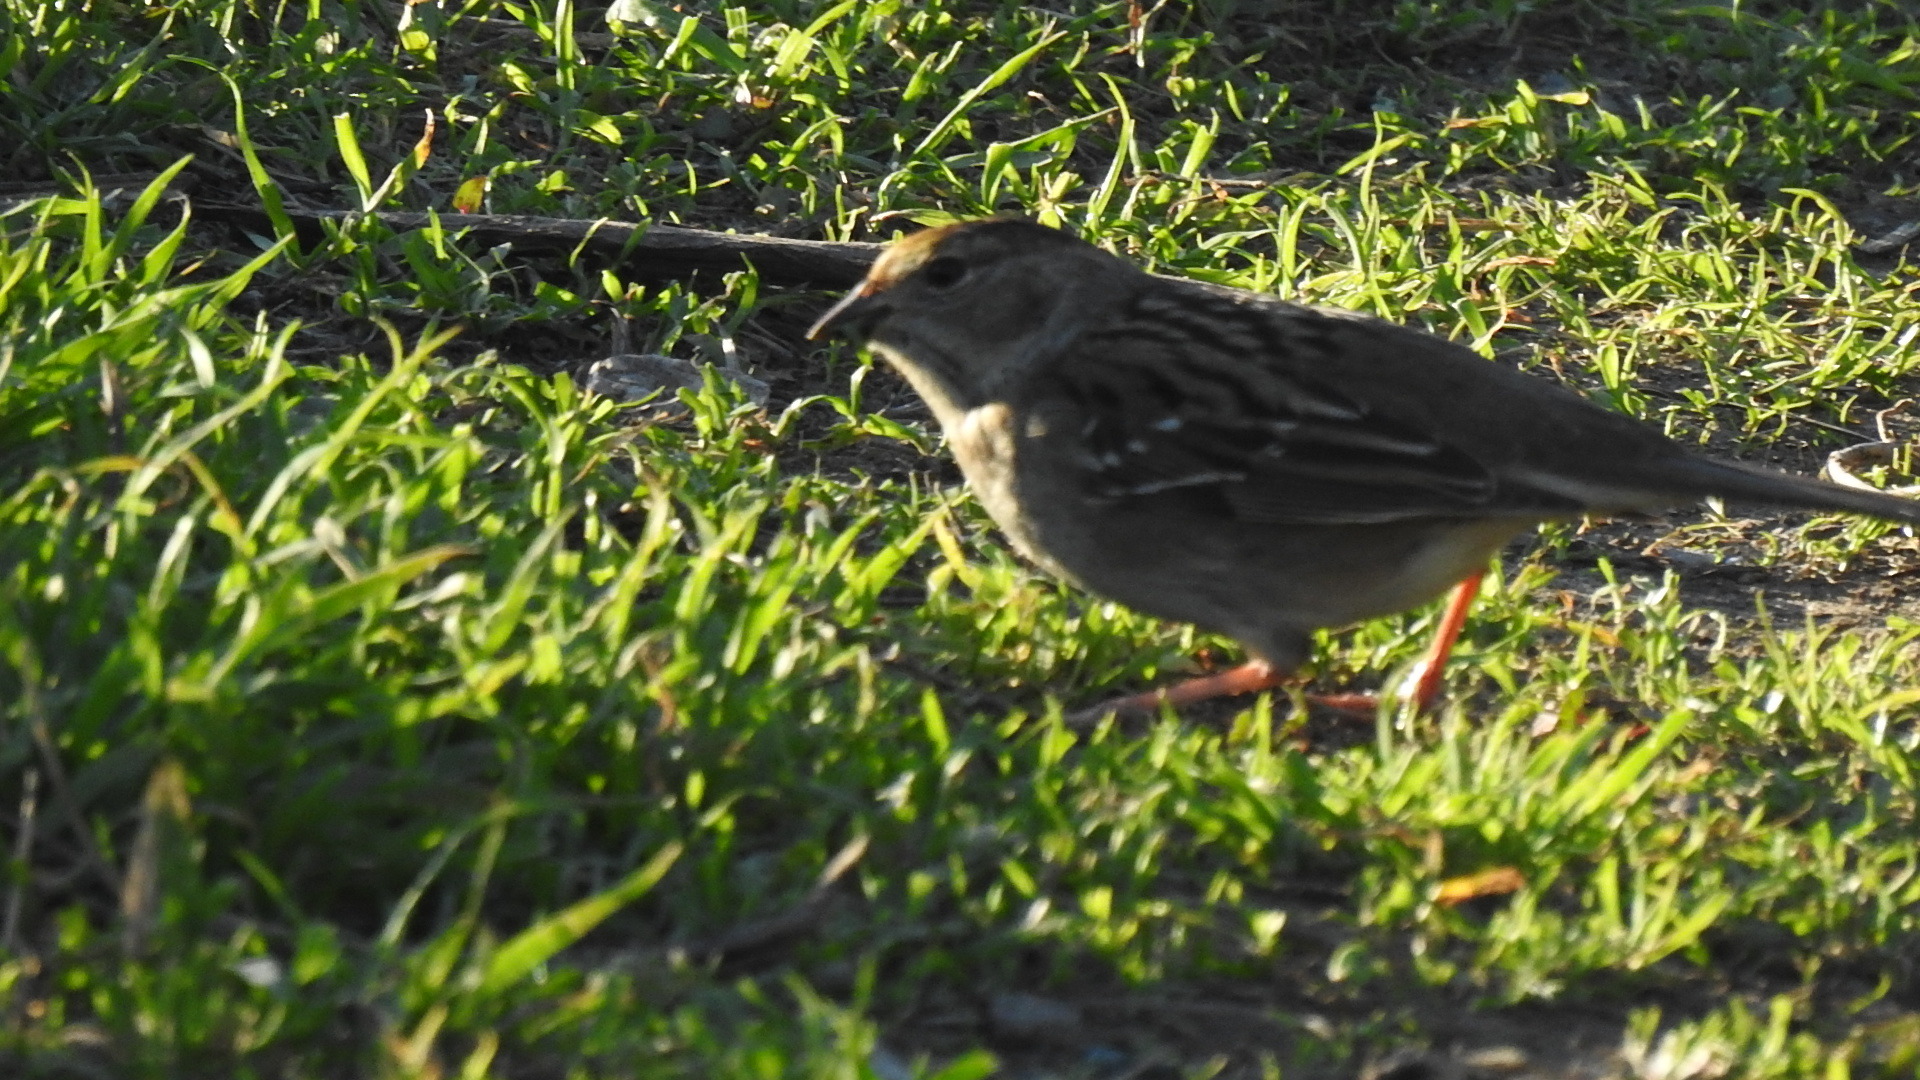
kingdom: Animalia
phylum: Chordata
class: Aves
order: Passeriformes
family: Passerellidae
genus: Zonotrichia
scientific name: Zonotrichia atricapilla
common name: Golden-crowned sparrow
